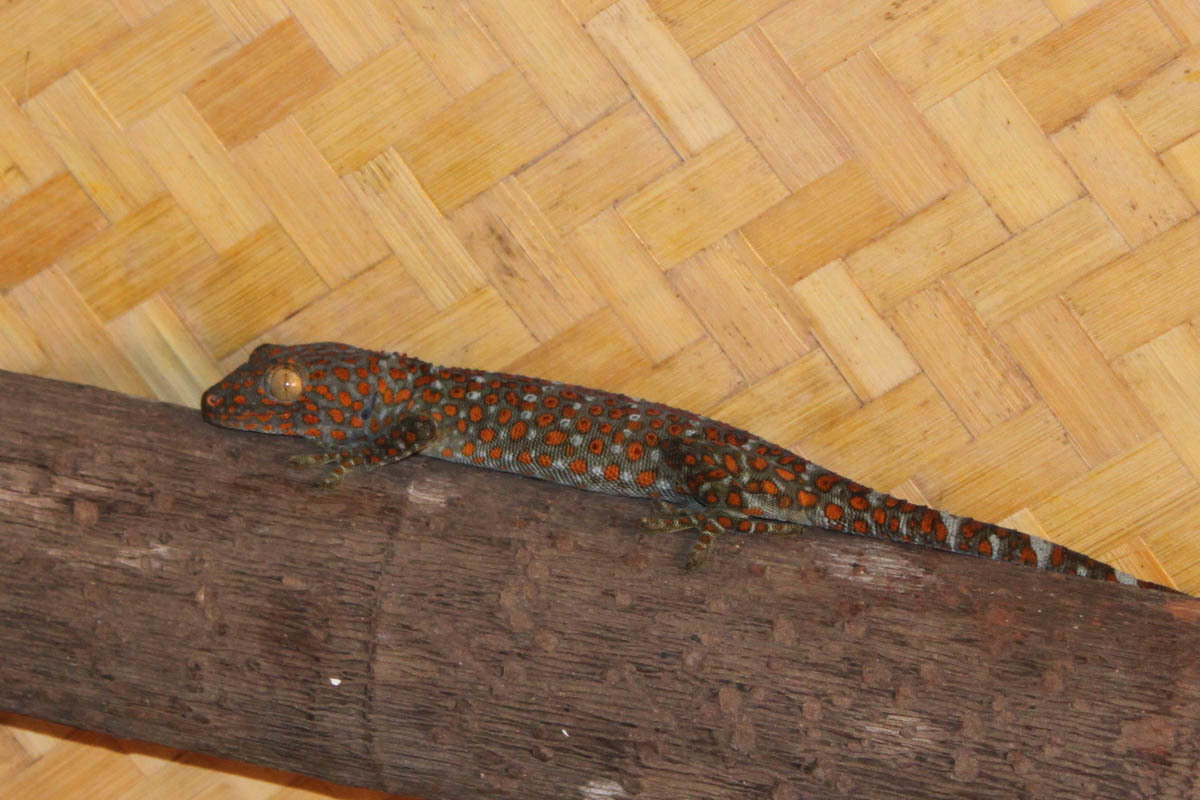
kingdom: Animalia
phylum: Chordata
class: Squamata
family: Gekkonidae
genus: Gekko
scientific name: Gekko gecko
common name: Tokay gecko
